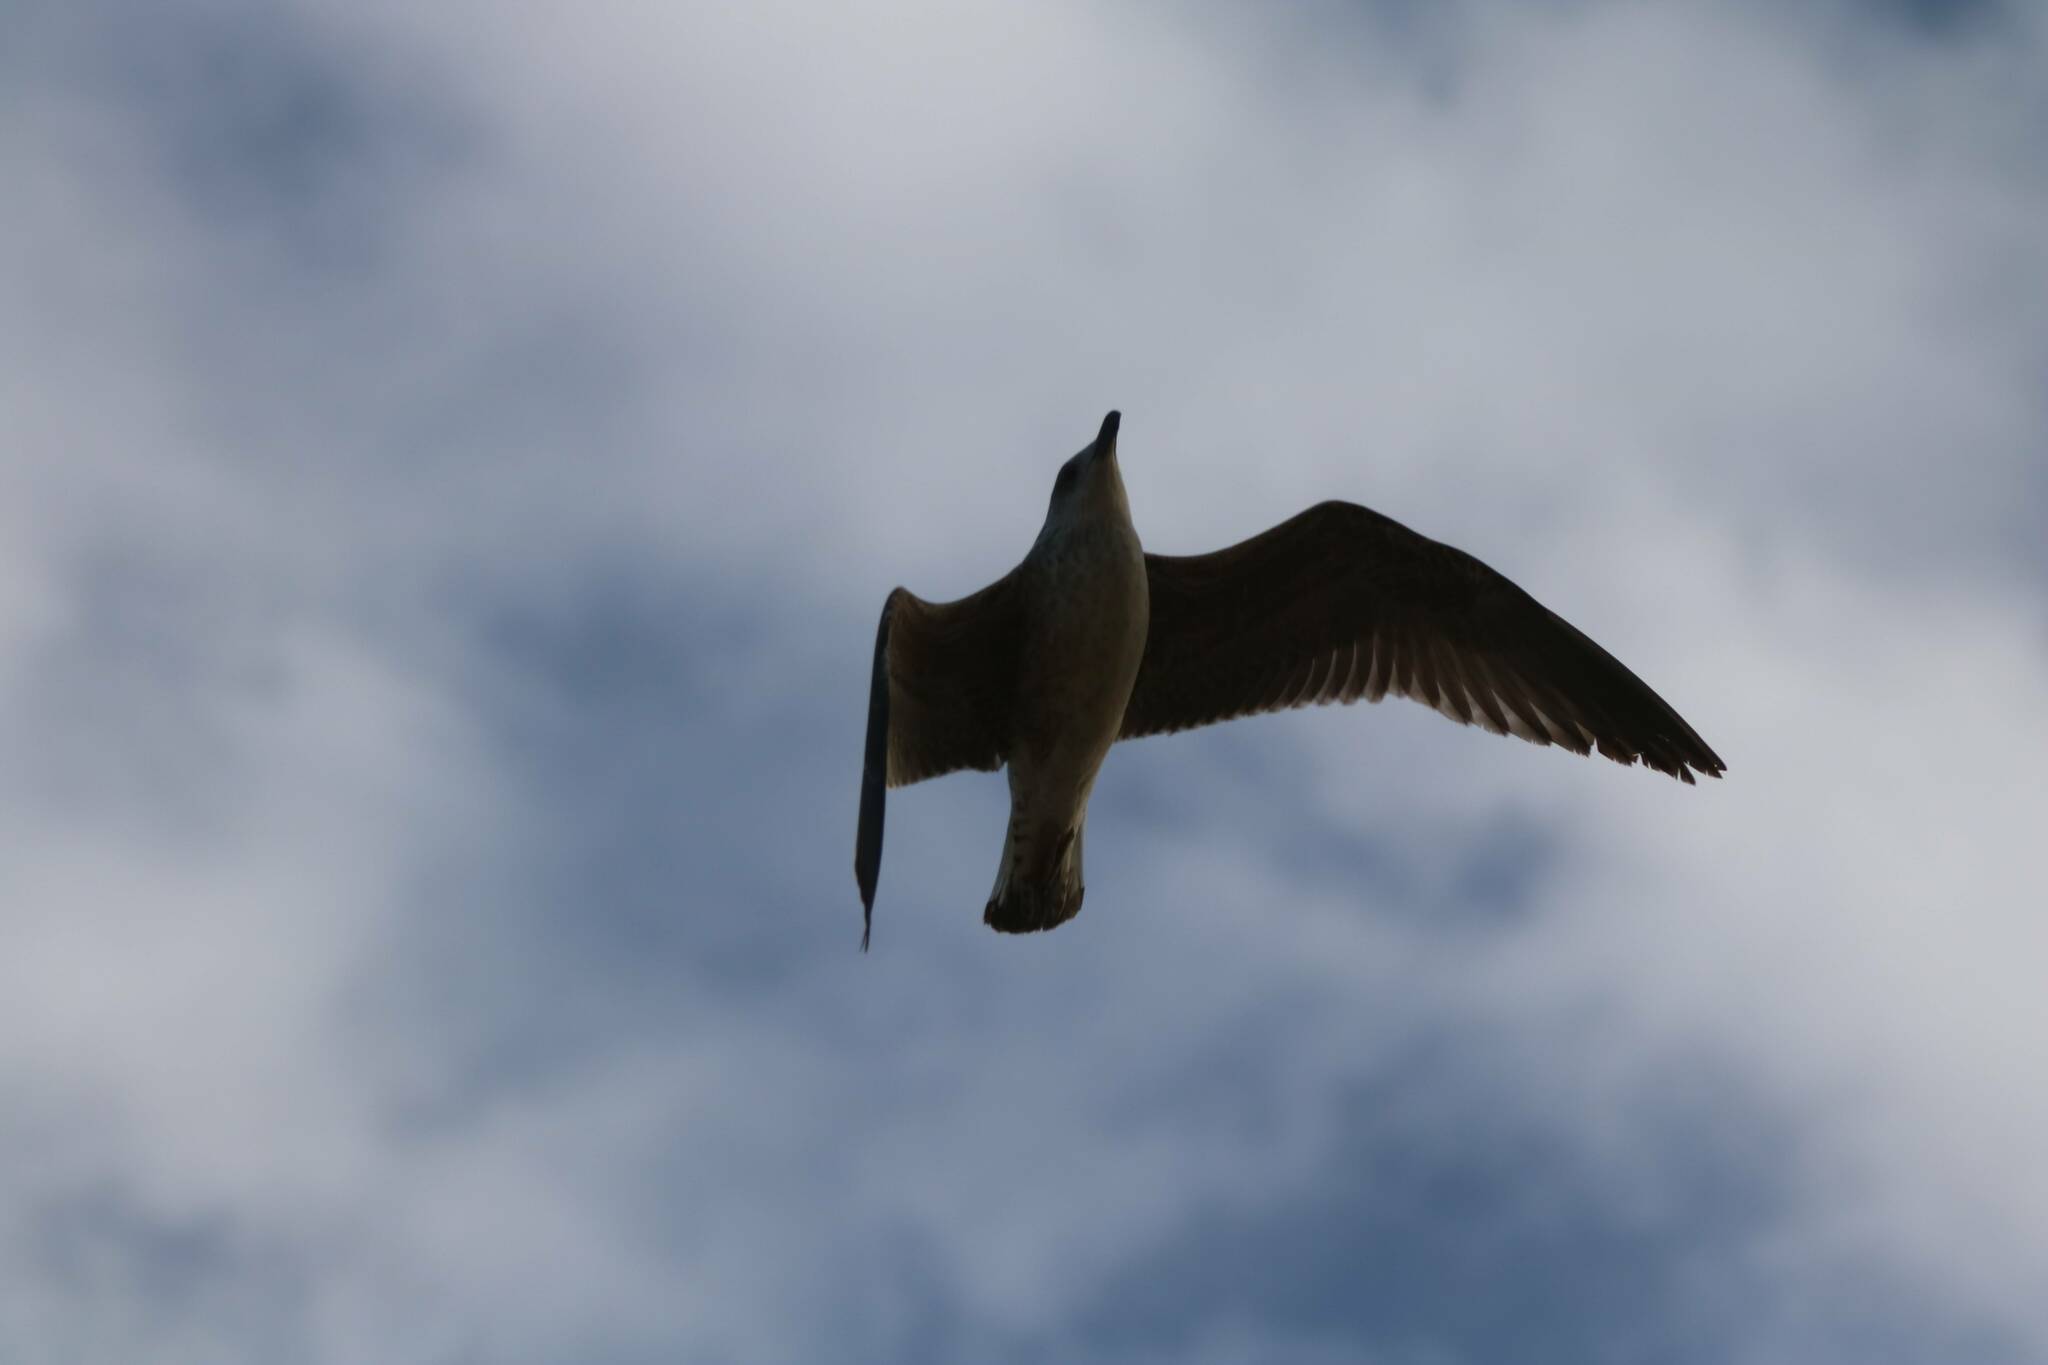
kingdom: Animalia
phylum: Chordata
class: Aves
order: Charadriiformes
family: Laridae
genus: Larus
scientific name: Larus michahellis
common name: Yellow-legged gull
